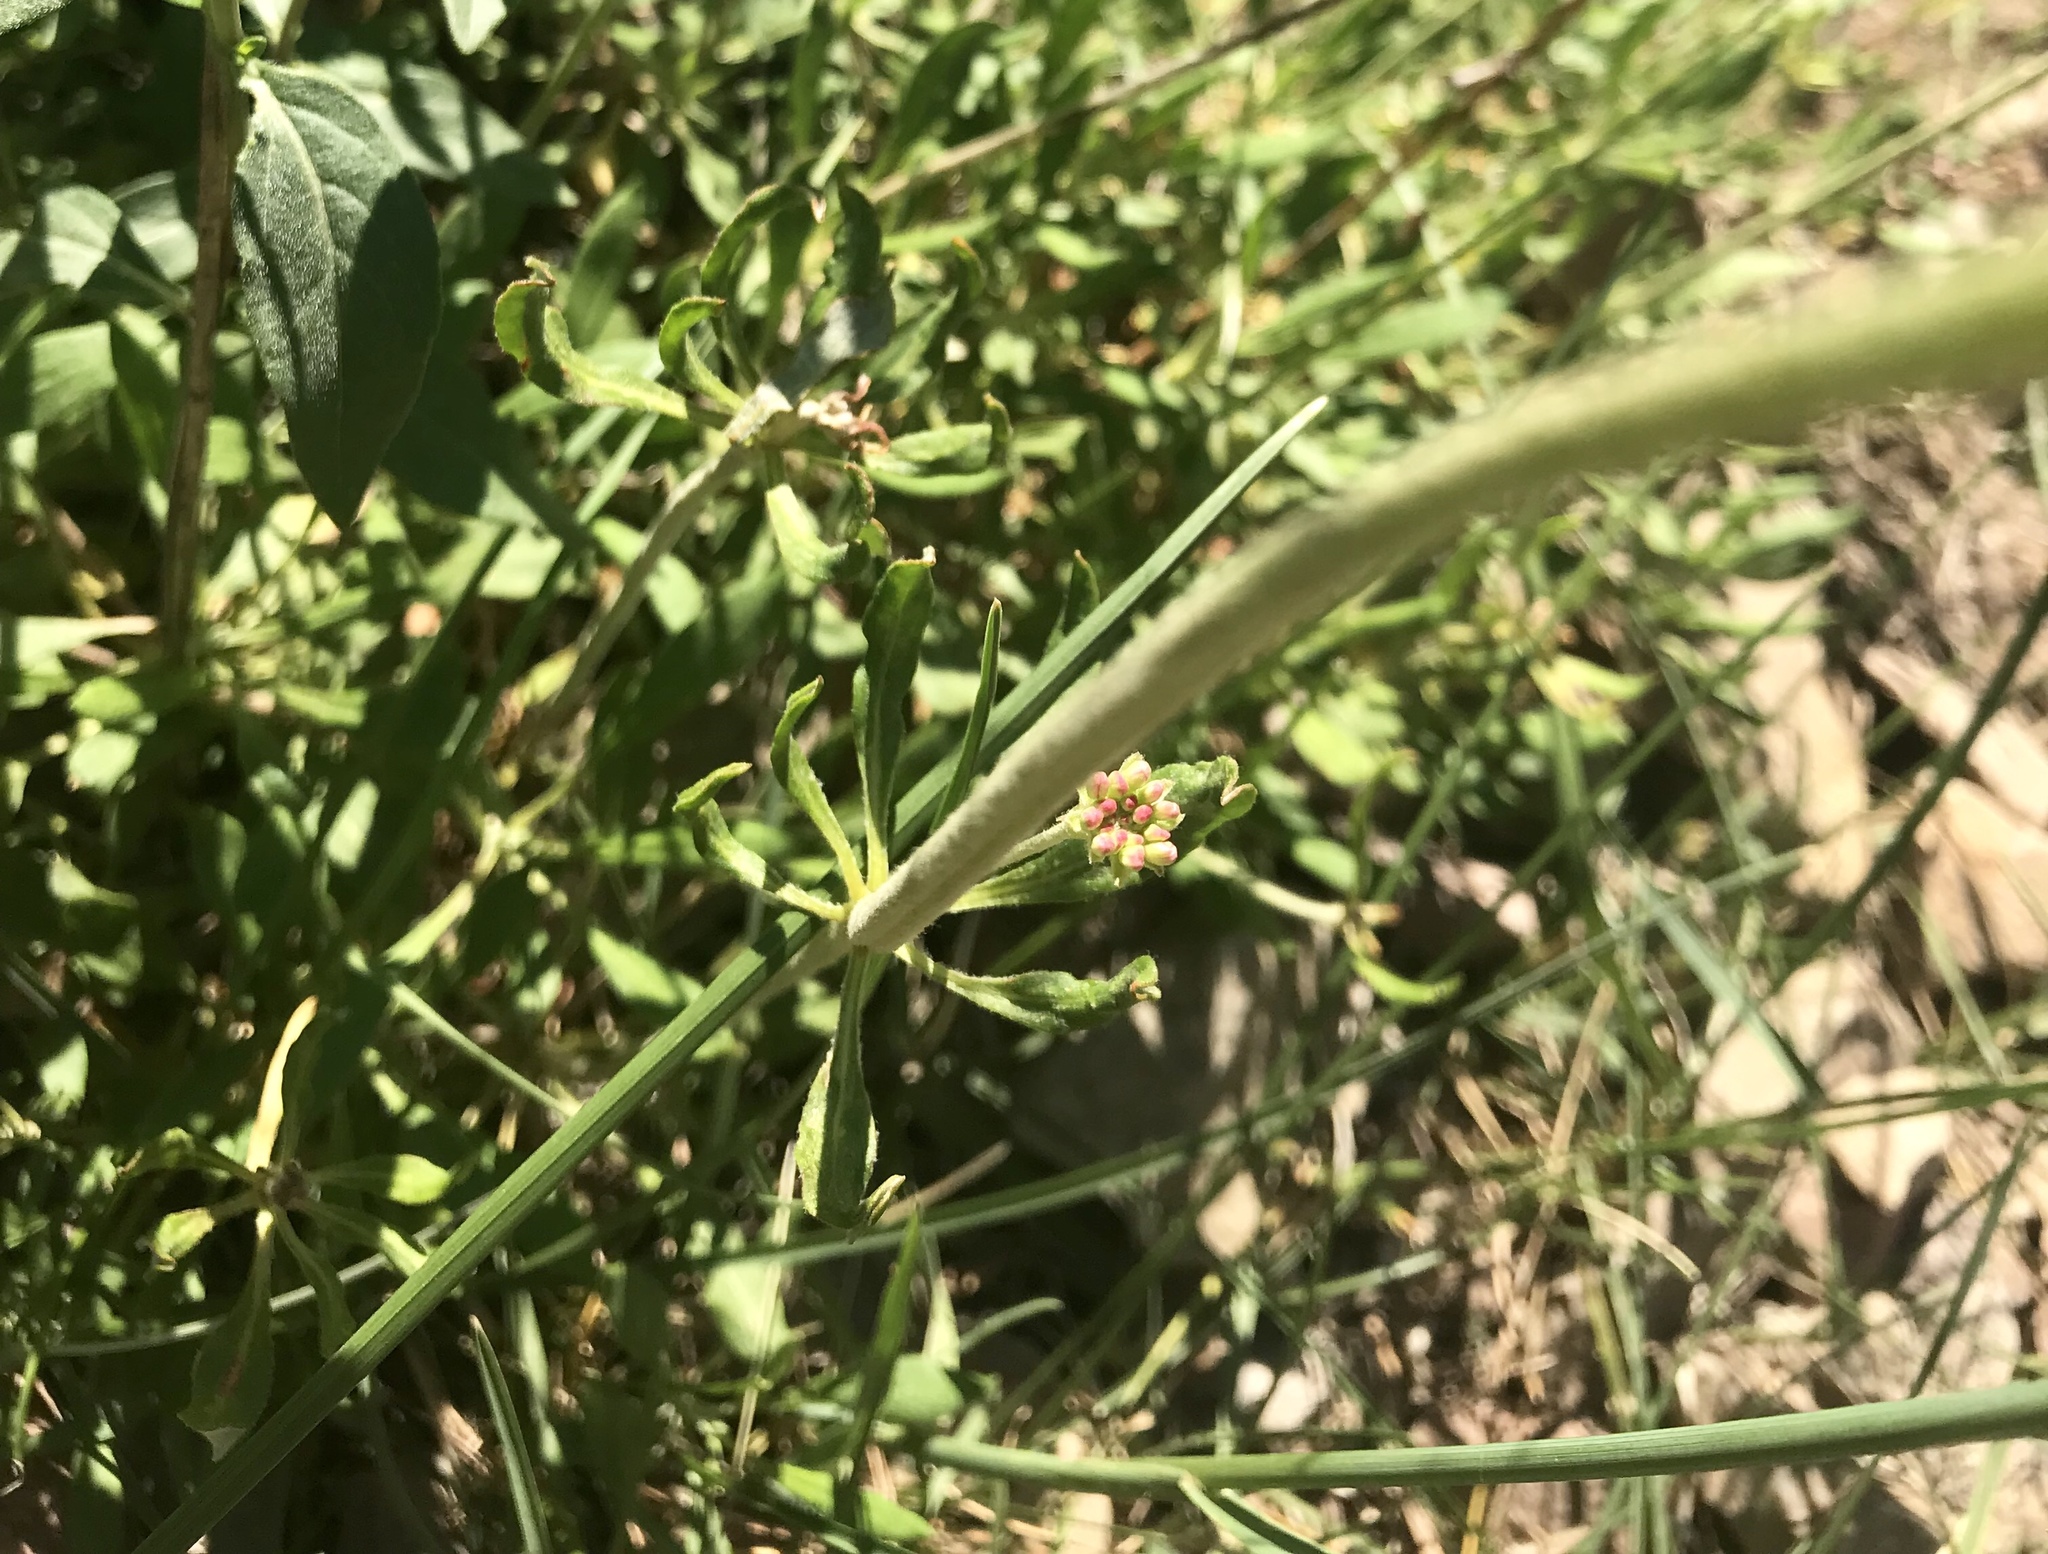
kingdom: Plantae
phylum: Tracheophyta
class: Magnoliopsida
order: Caryophyllales
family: Polygonaceae
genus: Eriogonum
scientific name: Eriogonum heracleoides
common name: Wyeth's buckwheat
